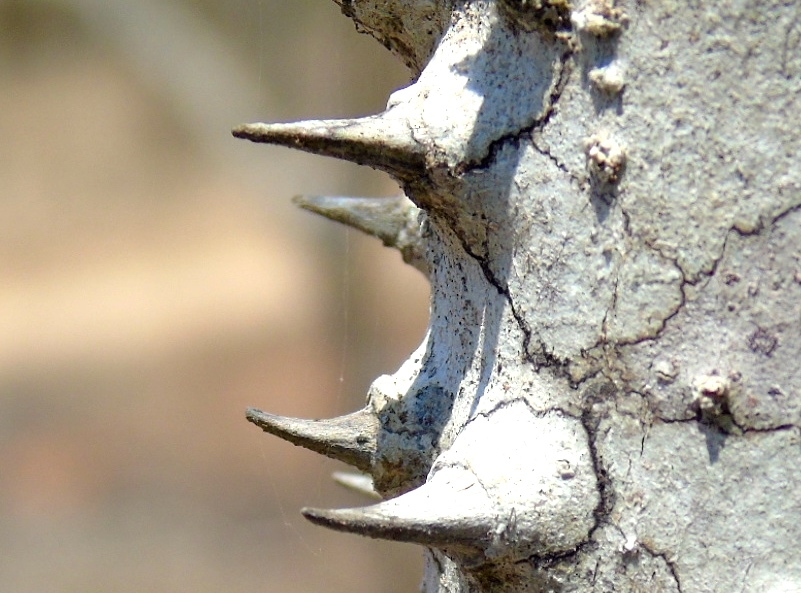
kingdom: Plantae
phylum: Tracheophyta
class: Magnoliopsida
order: Malpighiales
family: Euphorbiaceae
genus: Hura
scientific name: Hura polyandra
